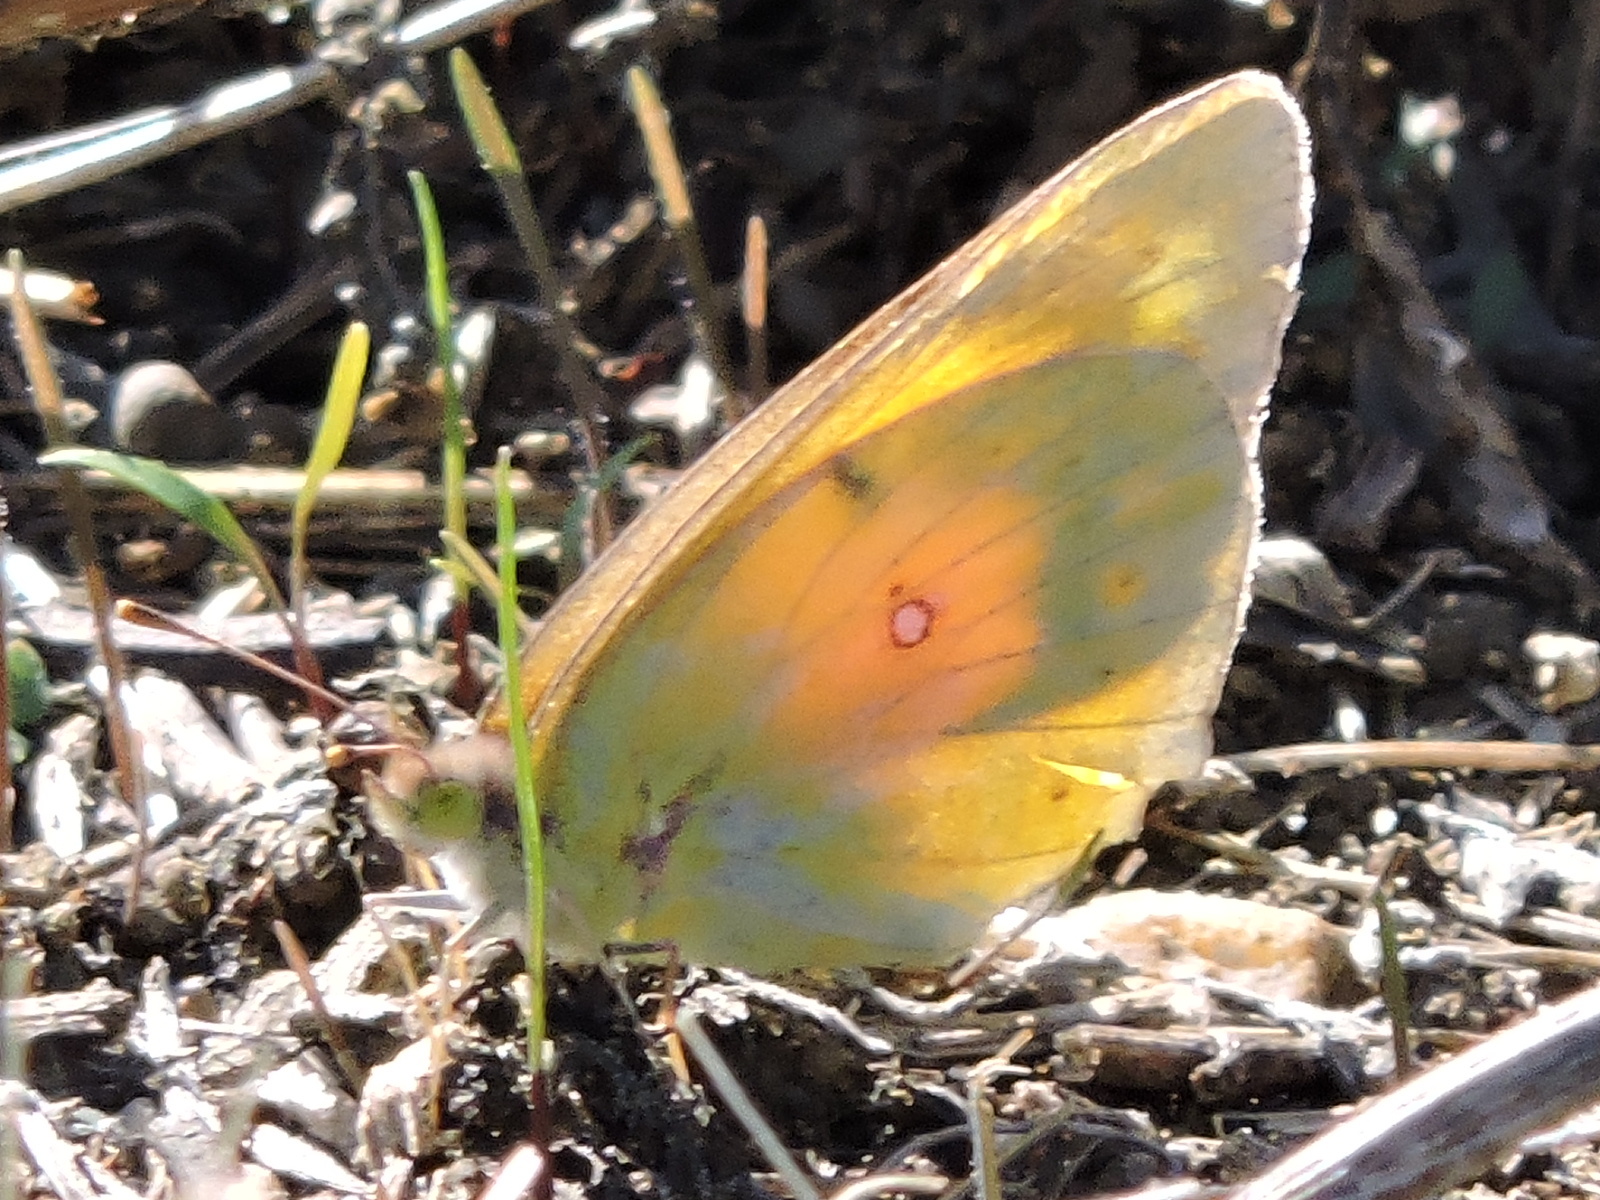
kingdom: Animalia
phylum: Arthropoda
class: Insecta
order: Lepidoptera
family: Pieridae
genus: Colias
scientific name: Colias eurytheme
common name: Alfalfa butterfly
